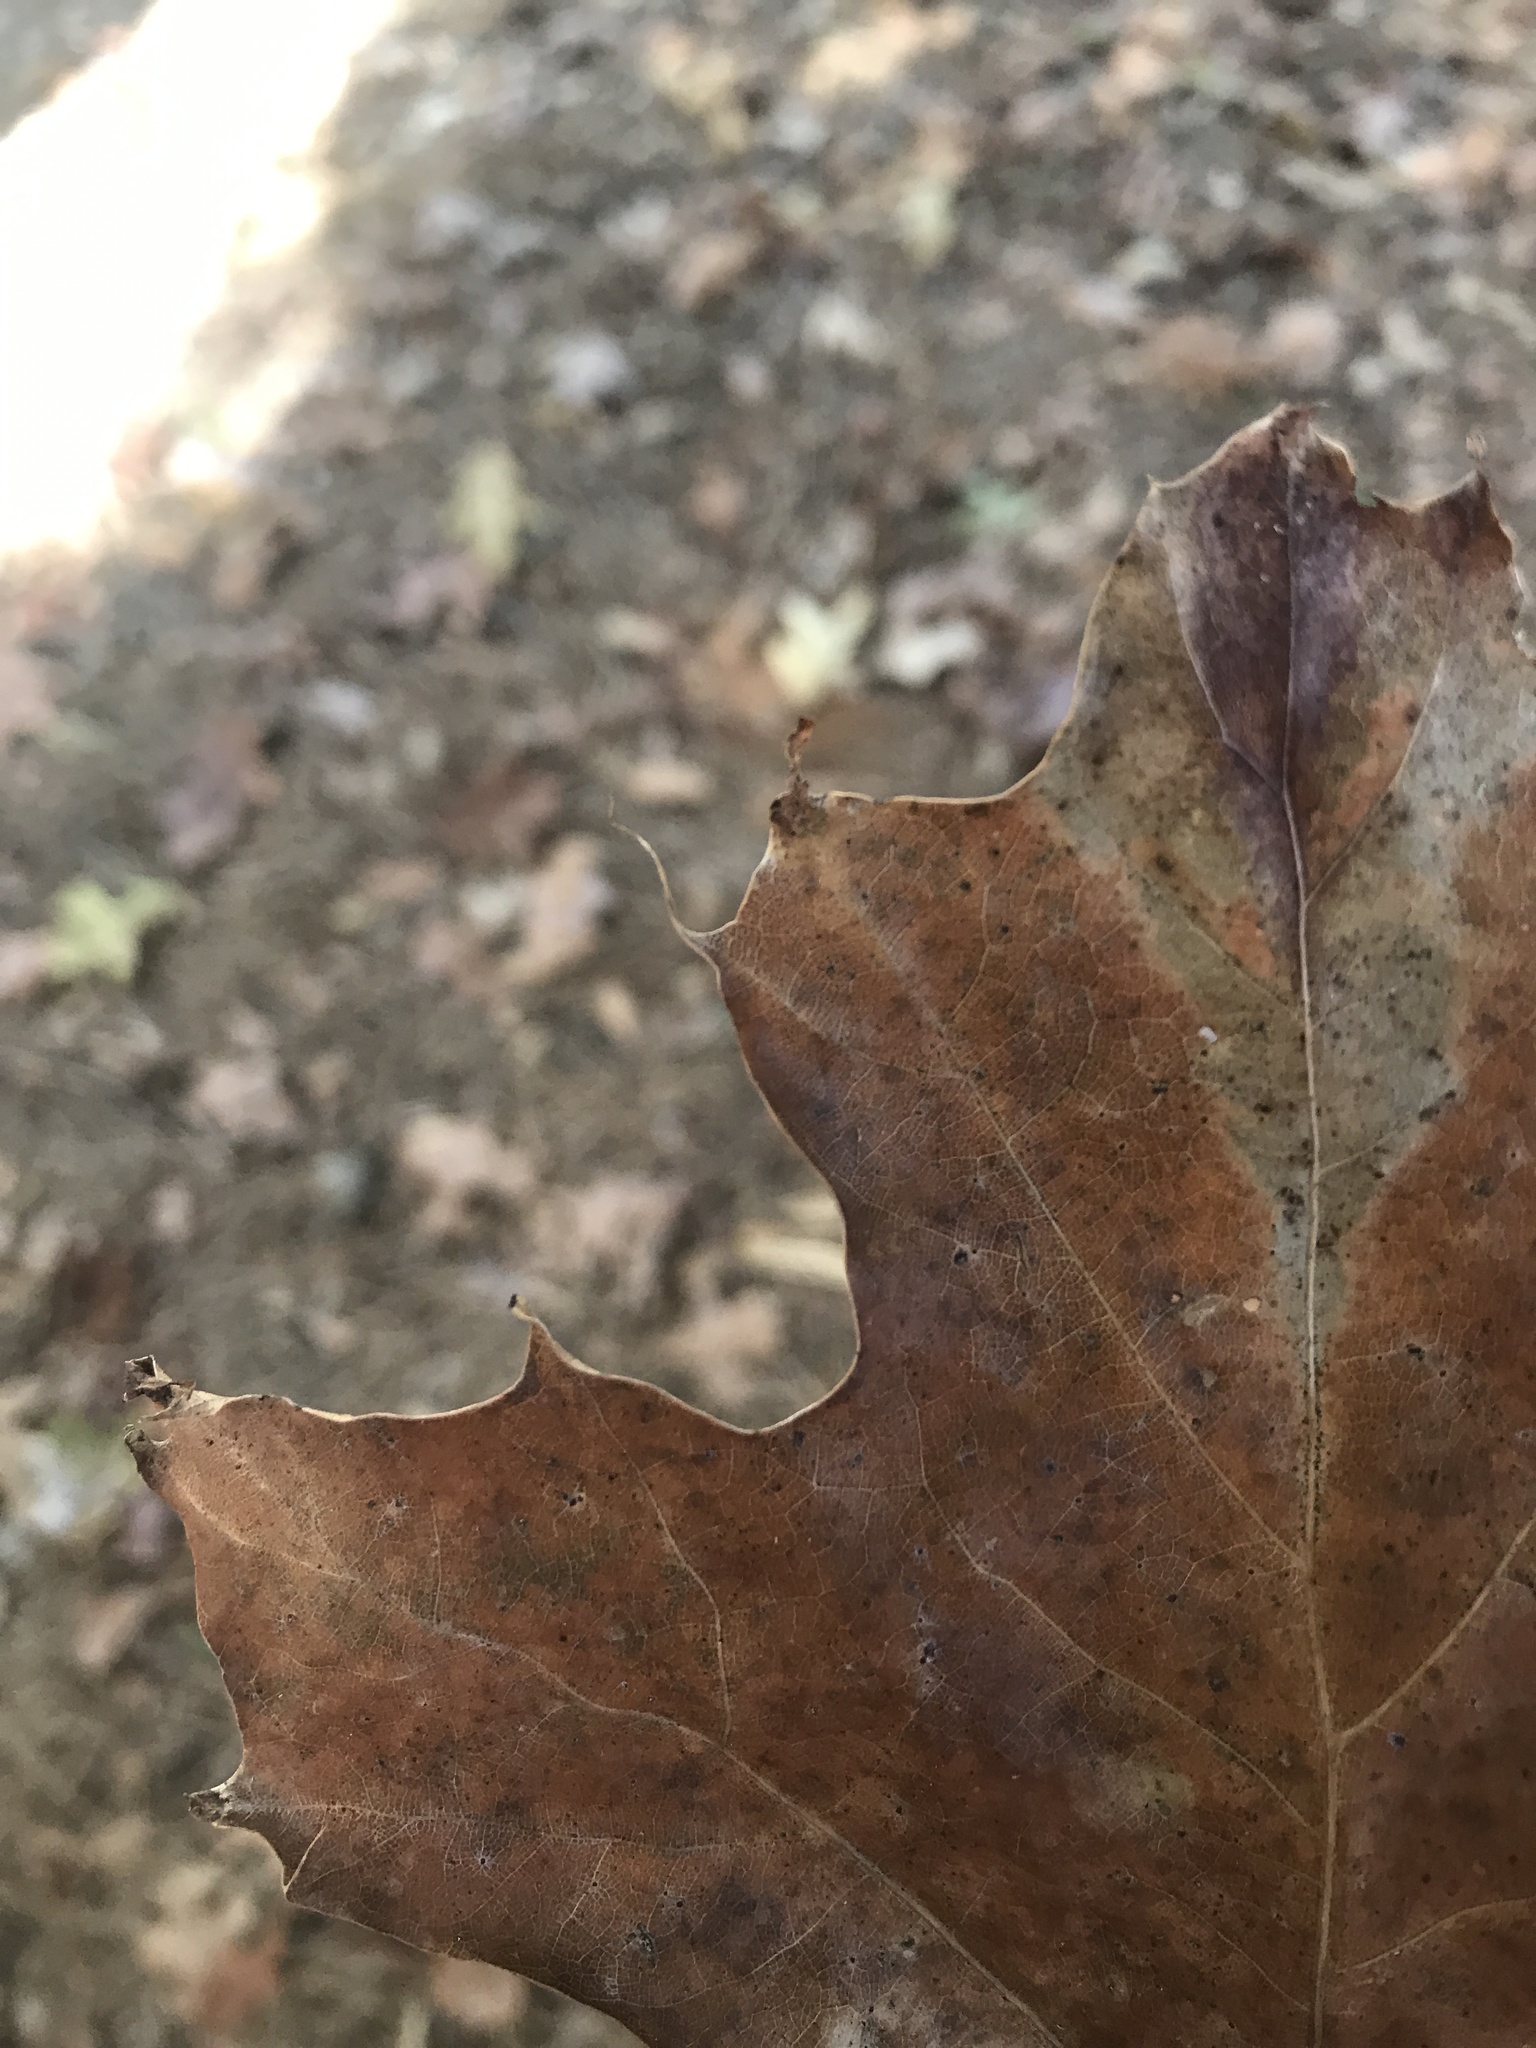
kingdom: Plantae
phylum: Tracheophyta
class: Magnoliopsida
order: Fagales
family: Fagaceae
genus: Quercus
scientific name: Quercus rubra
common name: Red oak
